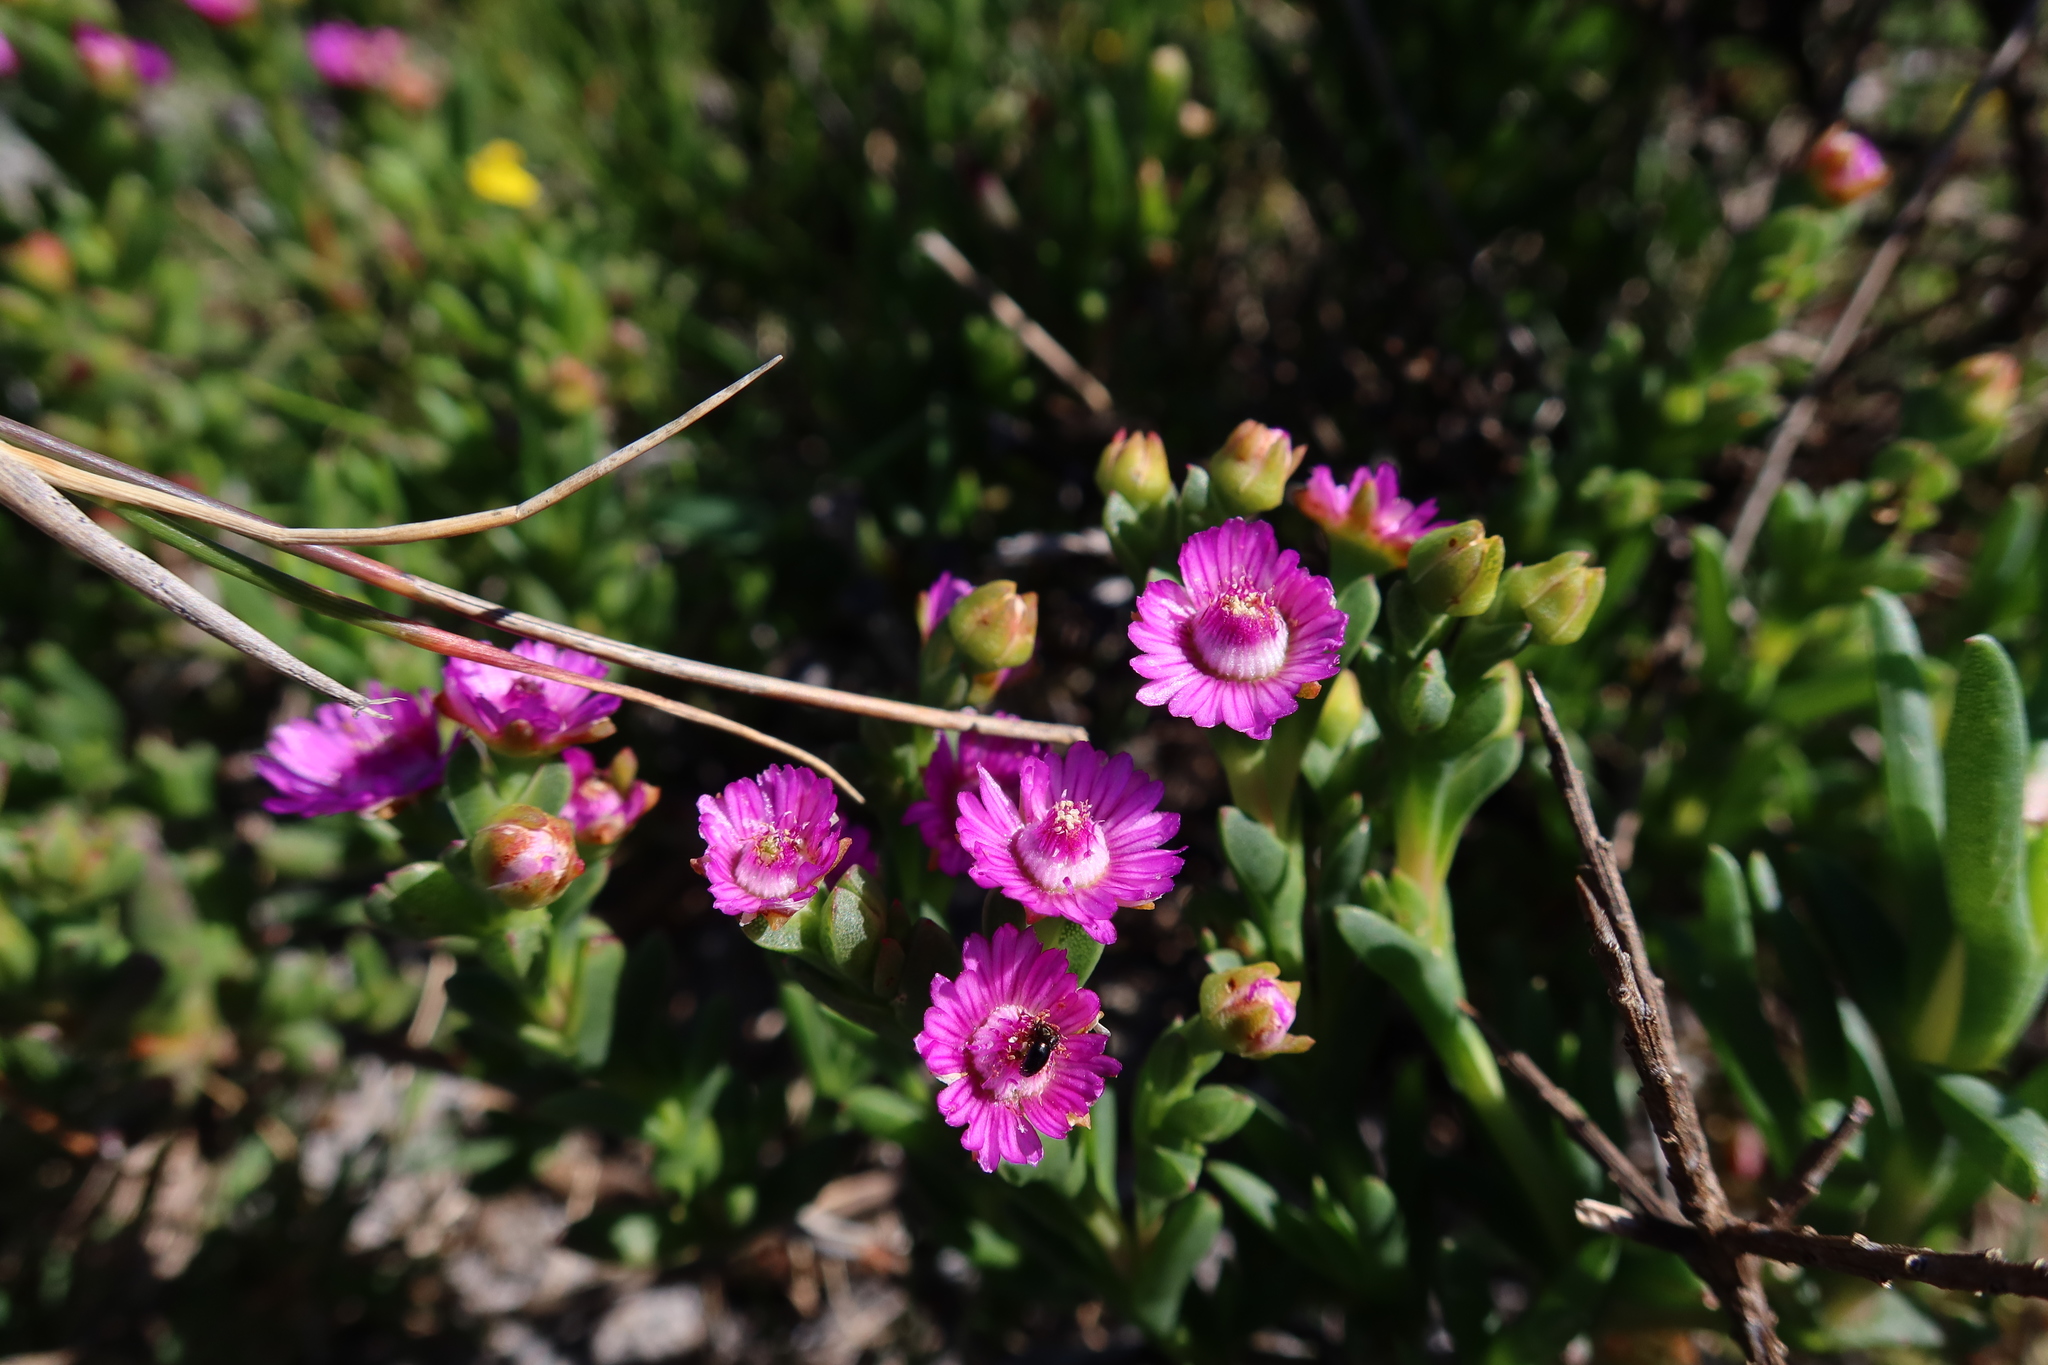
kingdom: Plantae
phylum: Tracheophyta
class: Magnoliopsida
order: Caryophyllales
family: Aizoaceae
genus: Ruschia
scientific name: Ruschia sarmentosa
